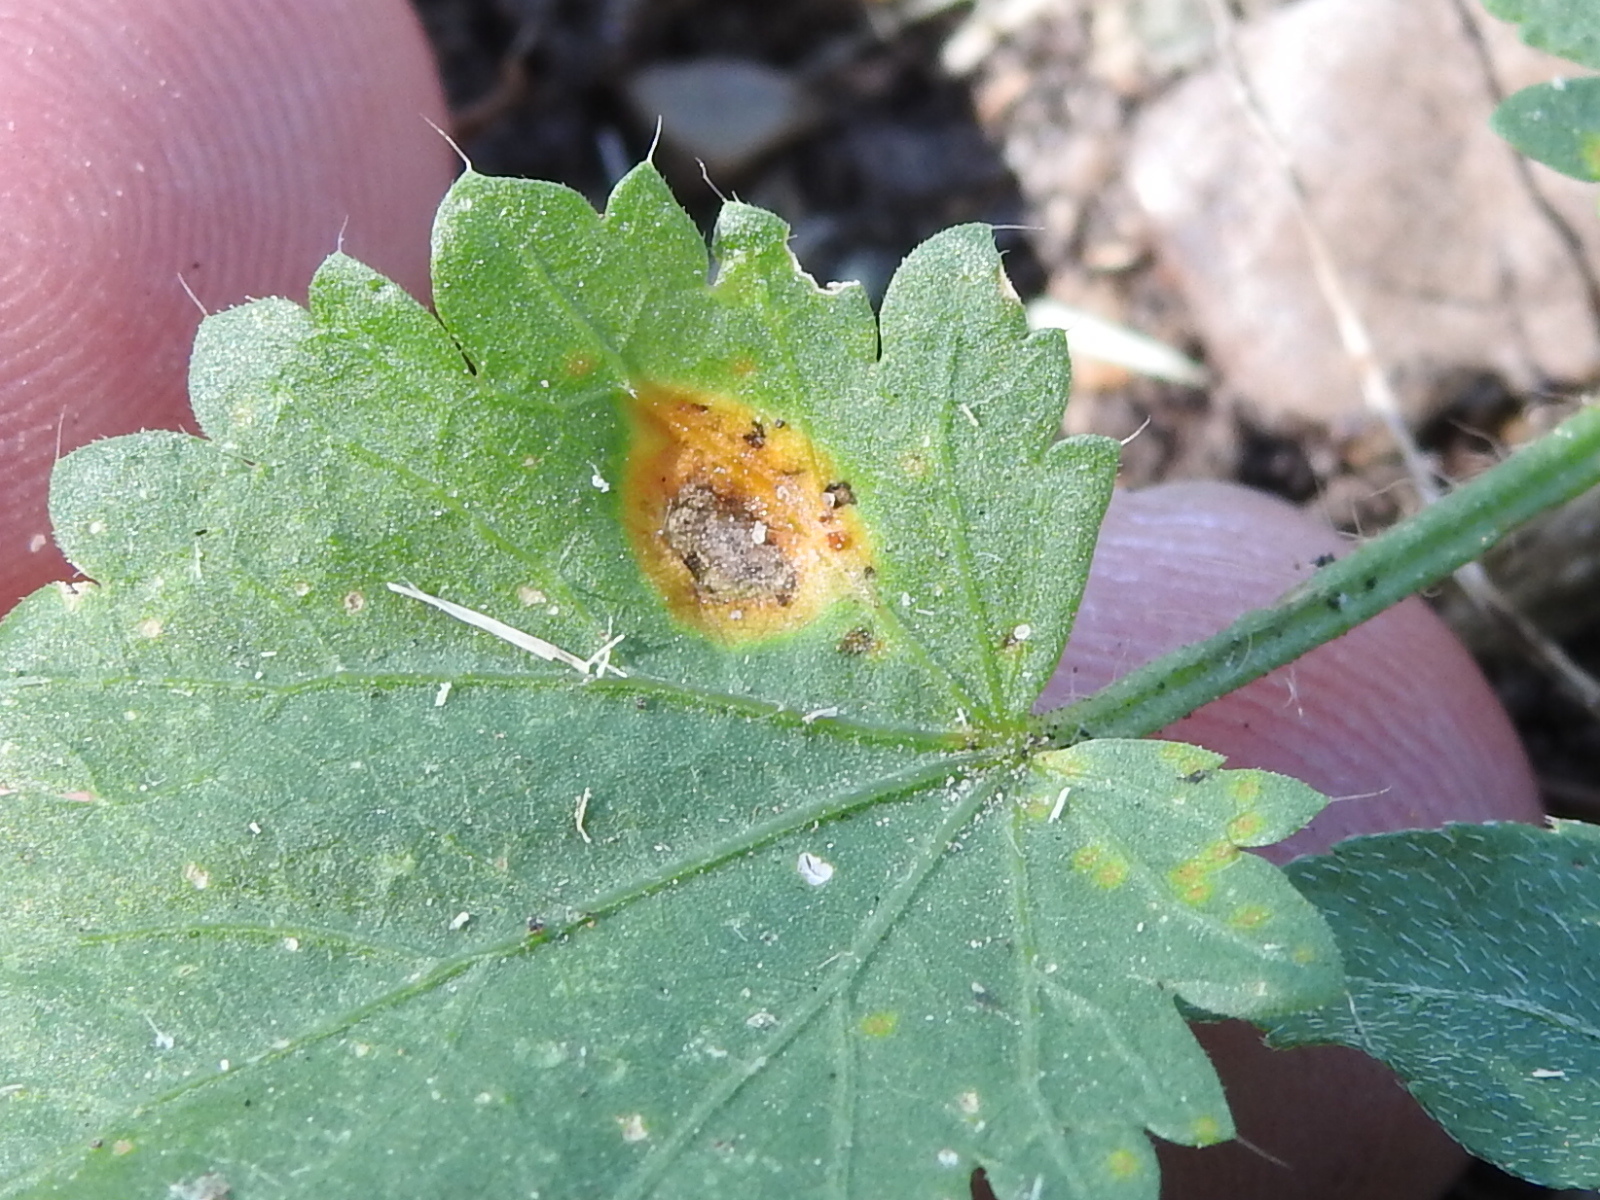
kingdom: Fungi
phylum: Basidiomycota
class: Pucciniomycetes
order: Pucciniales
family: Pucciniaceae
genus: Puccinia
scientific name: Puccinia modiolae
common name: Rust of bristlemallow
